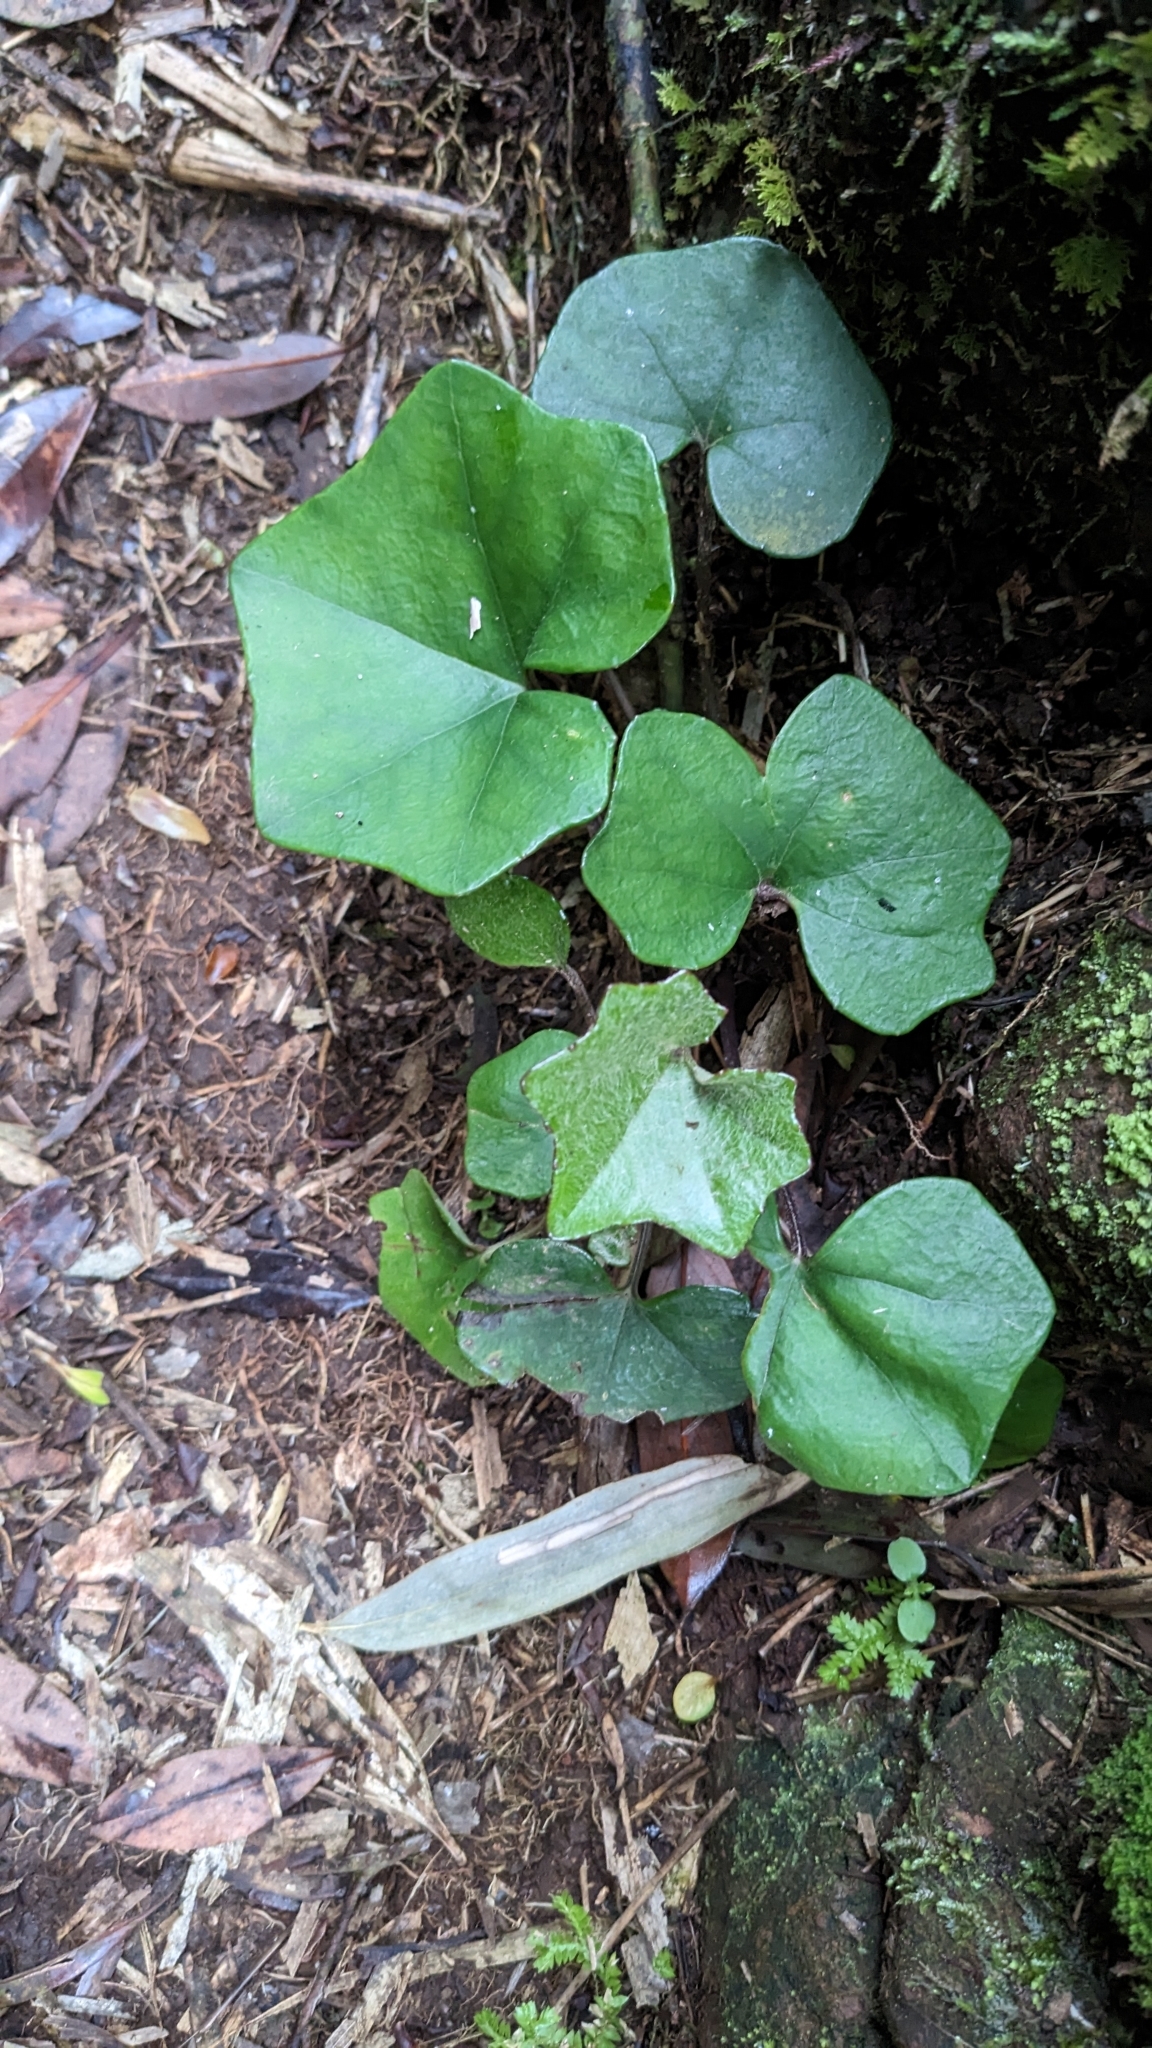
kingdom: Plantae
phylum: Tracheophyta
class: Magnoliopsida
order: Asterales
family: Asteraceae
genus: Farfugium
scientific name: Farfugium japonicum
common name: Leopardplant
